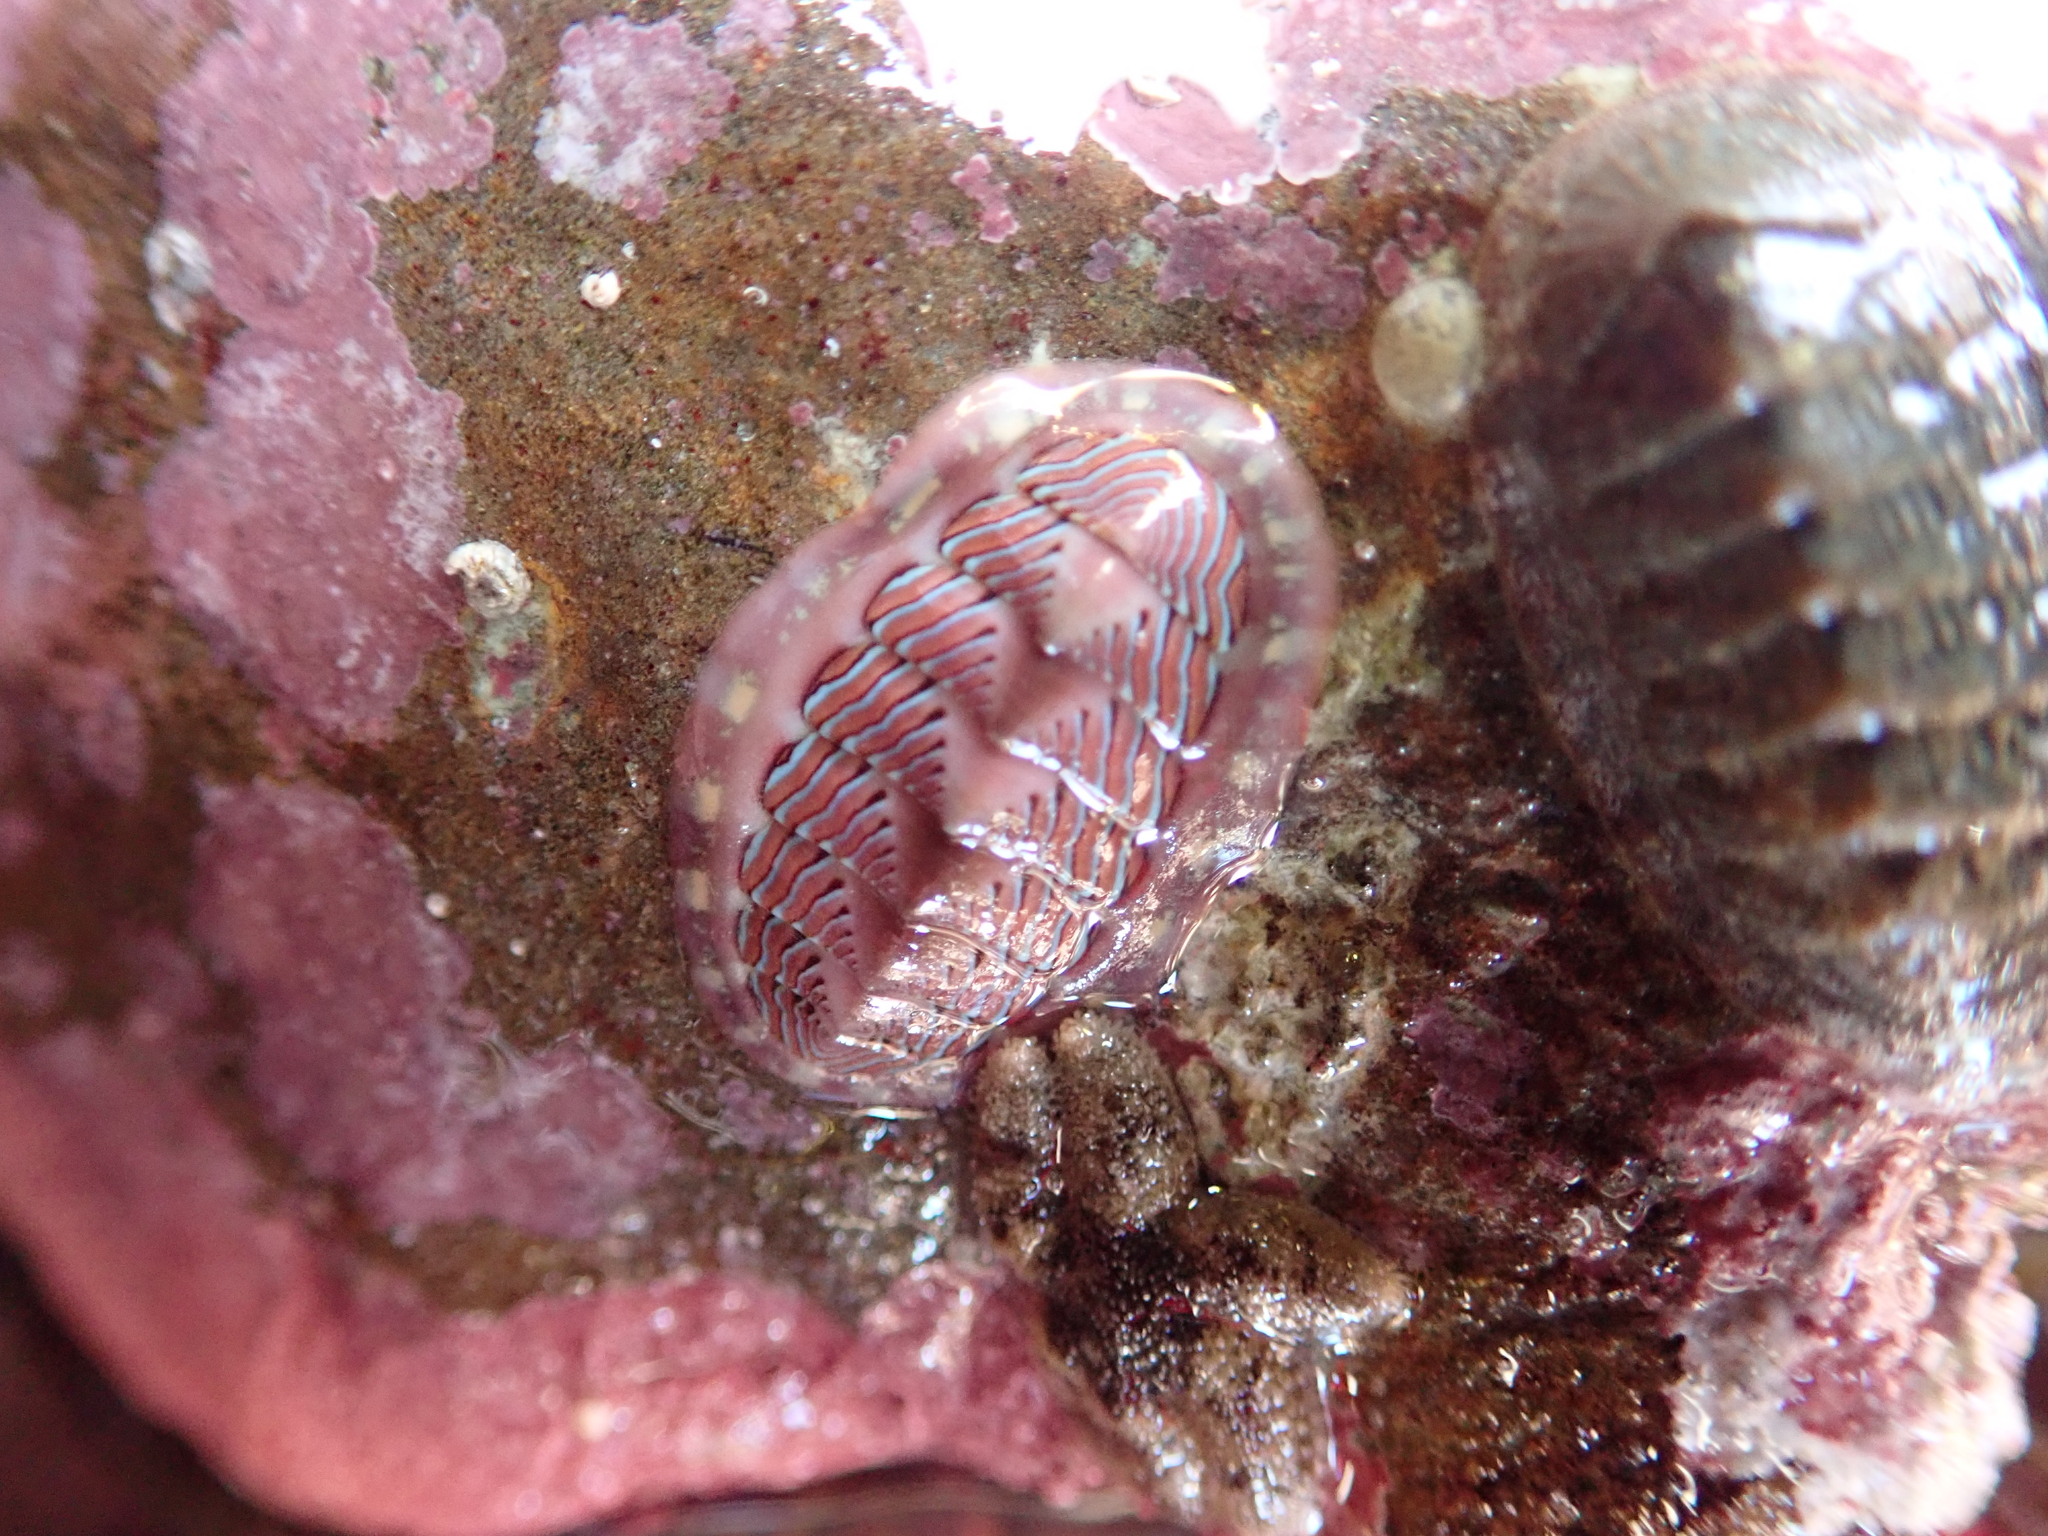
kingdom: Animalia
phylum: Mollusca
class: Polyplacophora
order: Chitonida
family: Tonicellidae
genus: Tonicella
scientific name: Tonicella lineata
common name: Lined chiton
